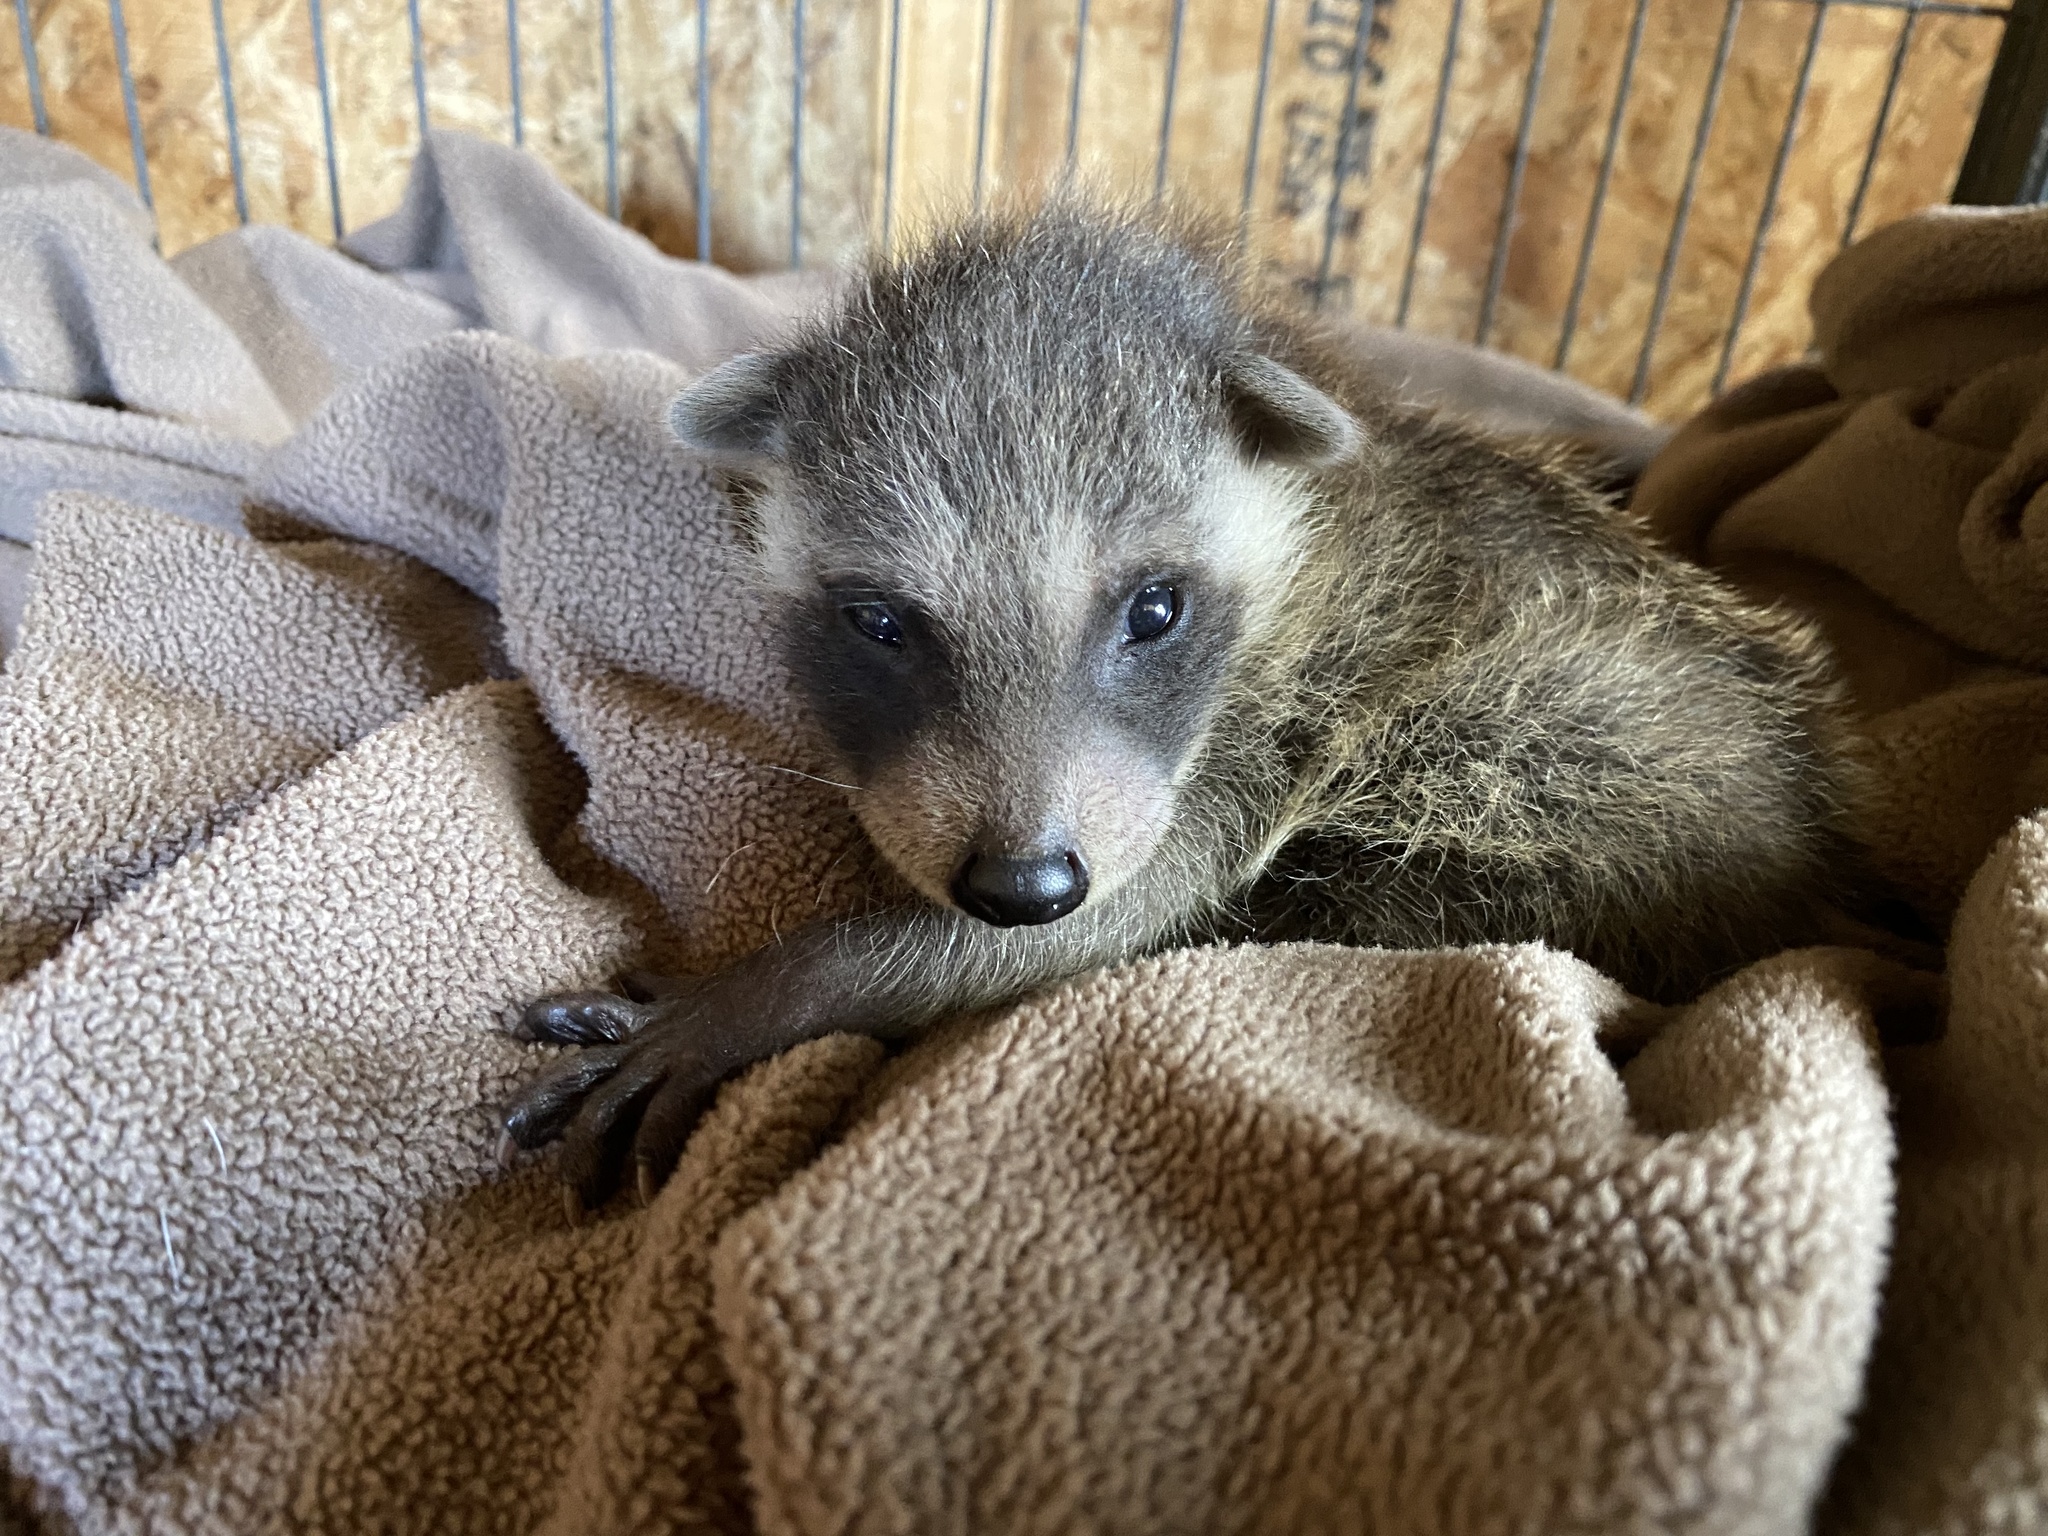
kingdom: Animalia
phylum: Chordata
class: Mammalia
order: Carnivora
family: Procyonidae
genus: Procyon
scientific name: Procyon lotor
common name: Raccoon
